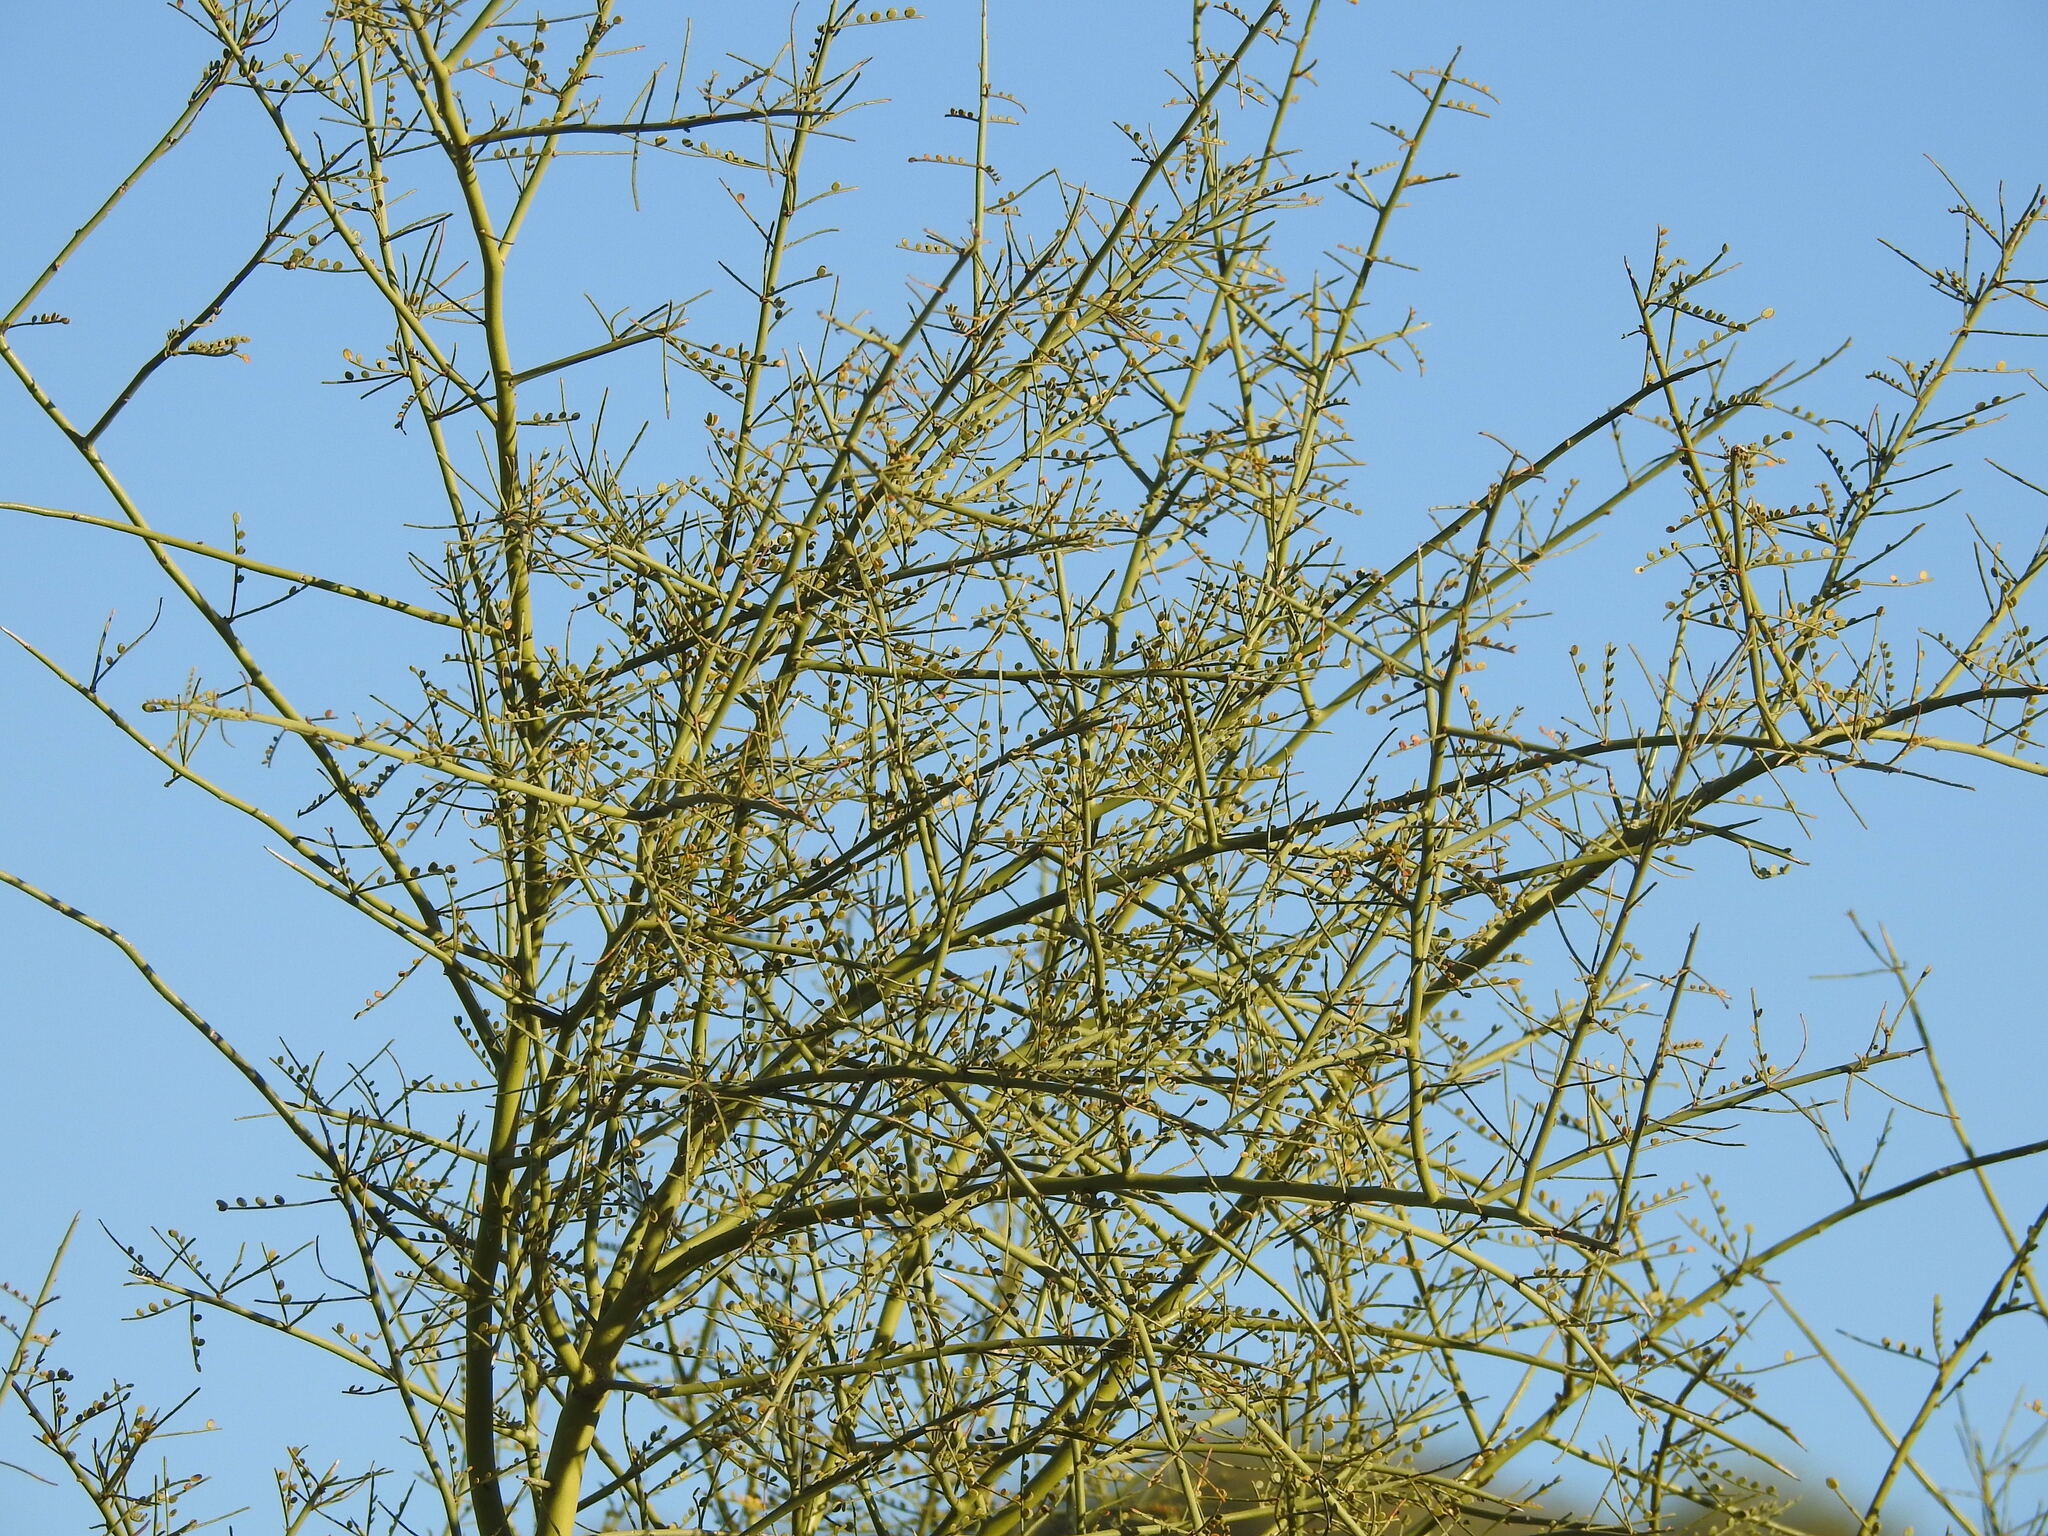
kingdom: Plantae
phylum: Tracheophyta
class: Magnoliopsida
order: Fabales
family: Fabaceae
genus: Parkinsonia
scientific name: Parkinsonia microphylla
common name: Yellow paloverde
